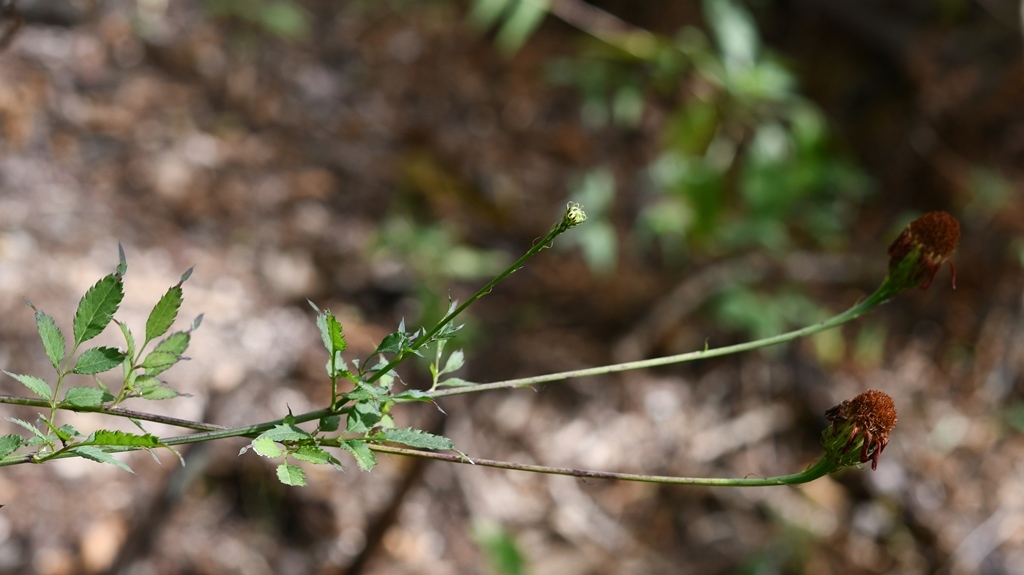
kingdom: Plantae
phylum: Tracheophyta
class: Magnoliopsida
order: Asterales
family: Asteraceae
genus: Adenophyllum
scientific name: Adenophyllum aurantium
